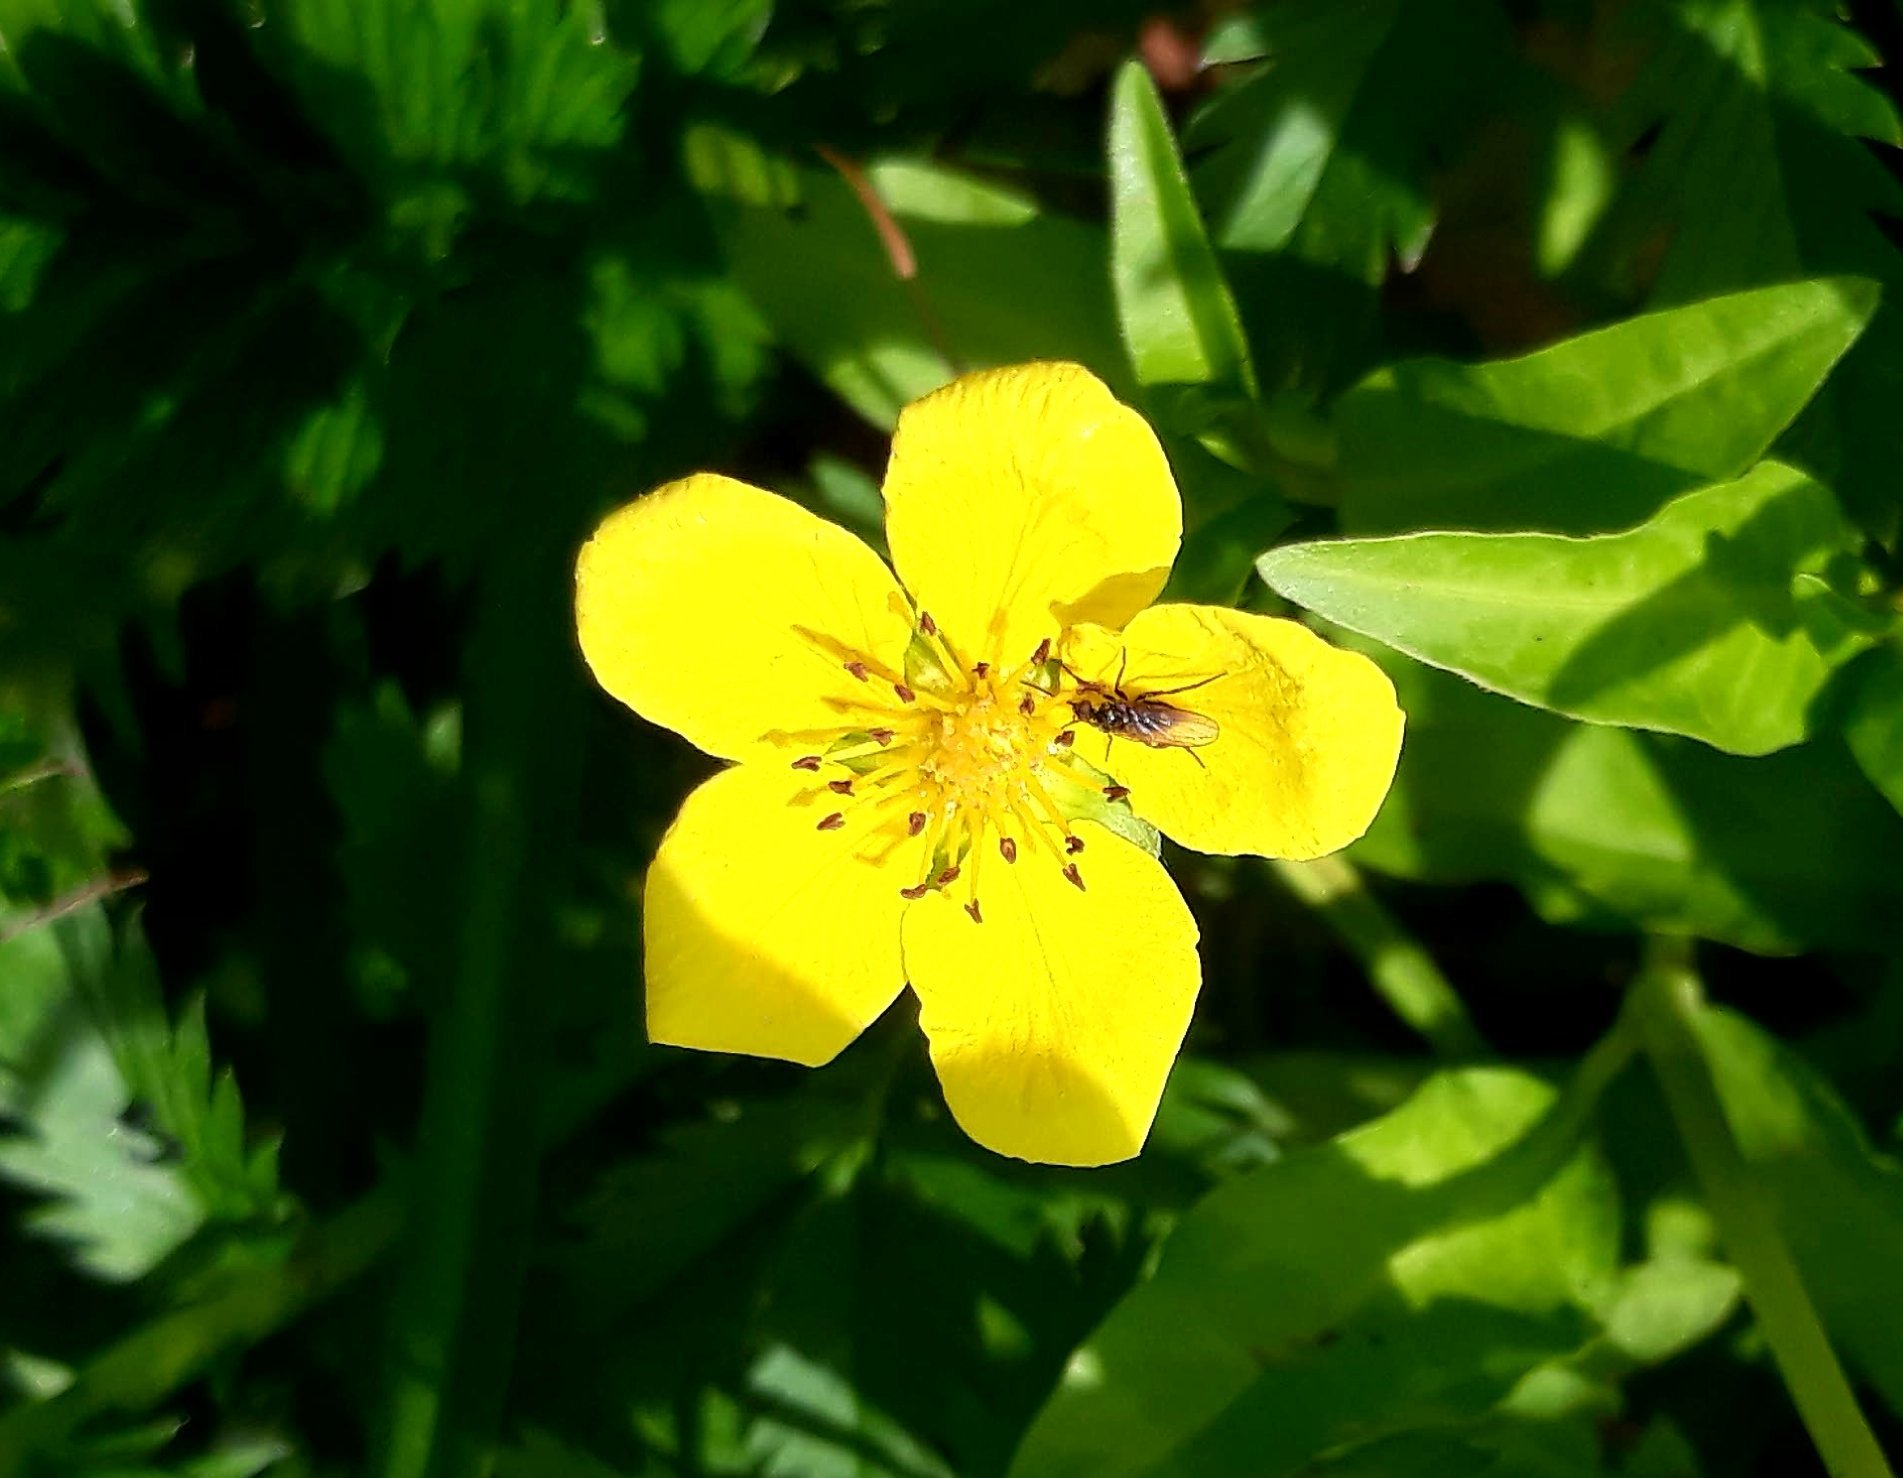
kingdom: Plantae
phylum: Tracheophyta
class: Magnoliopsida
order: Rosales
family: Rosaceae
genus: Argentina
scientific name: Argentina anserina
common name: Common silverweed
